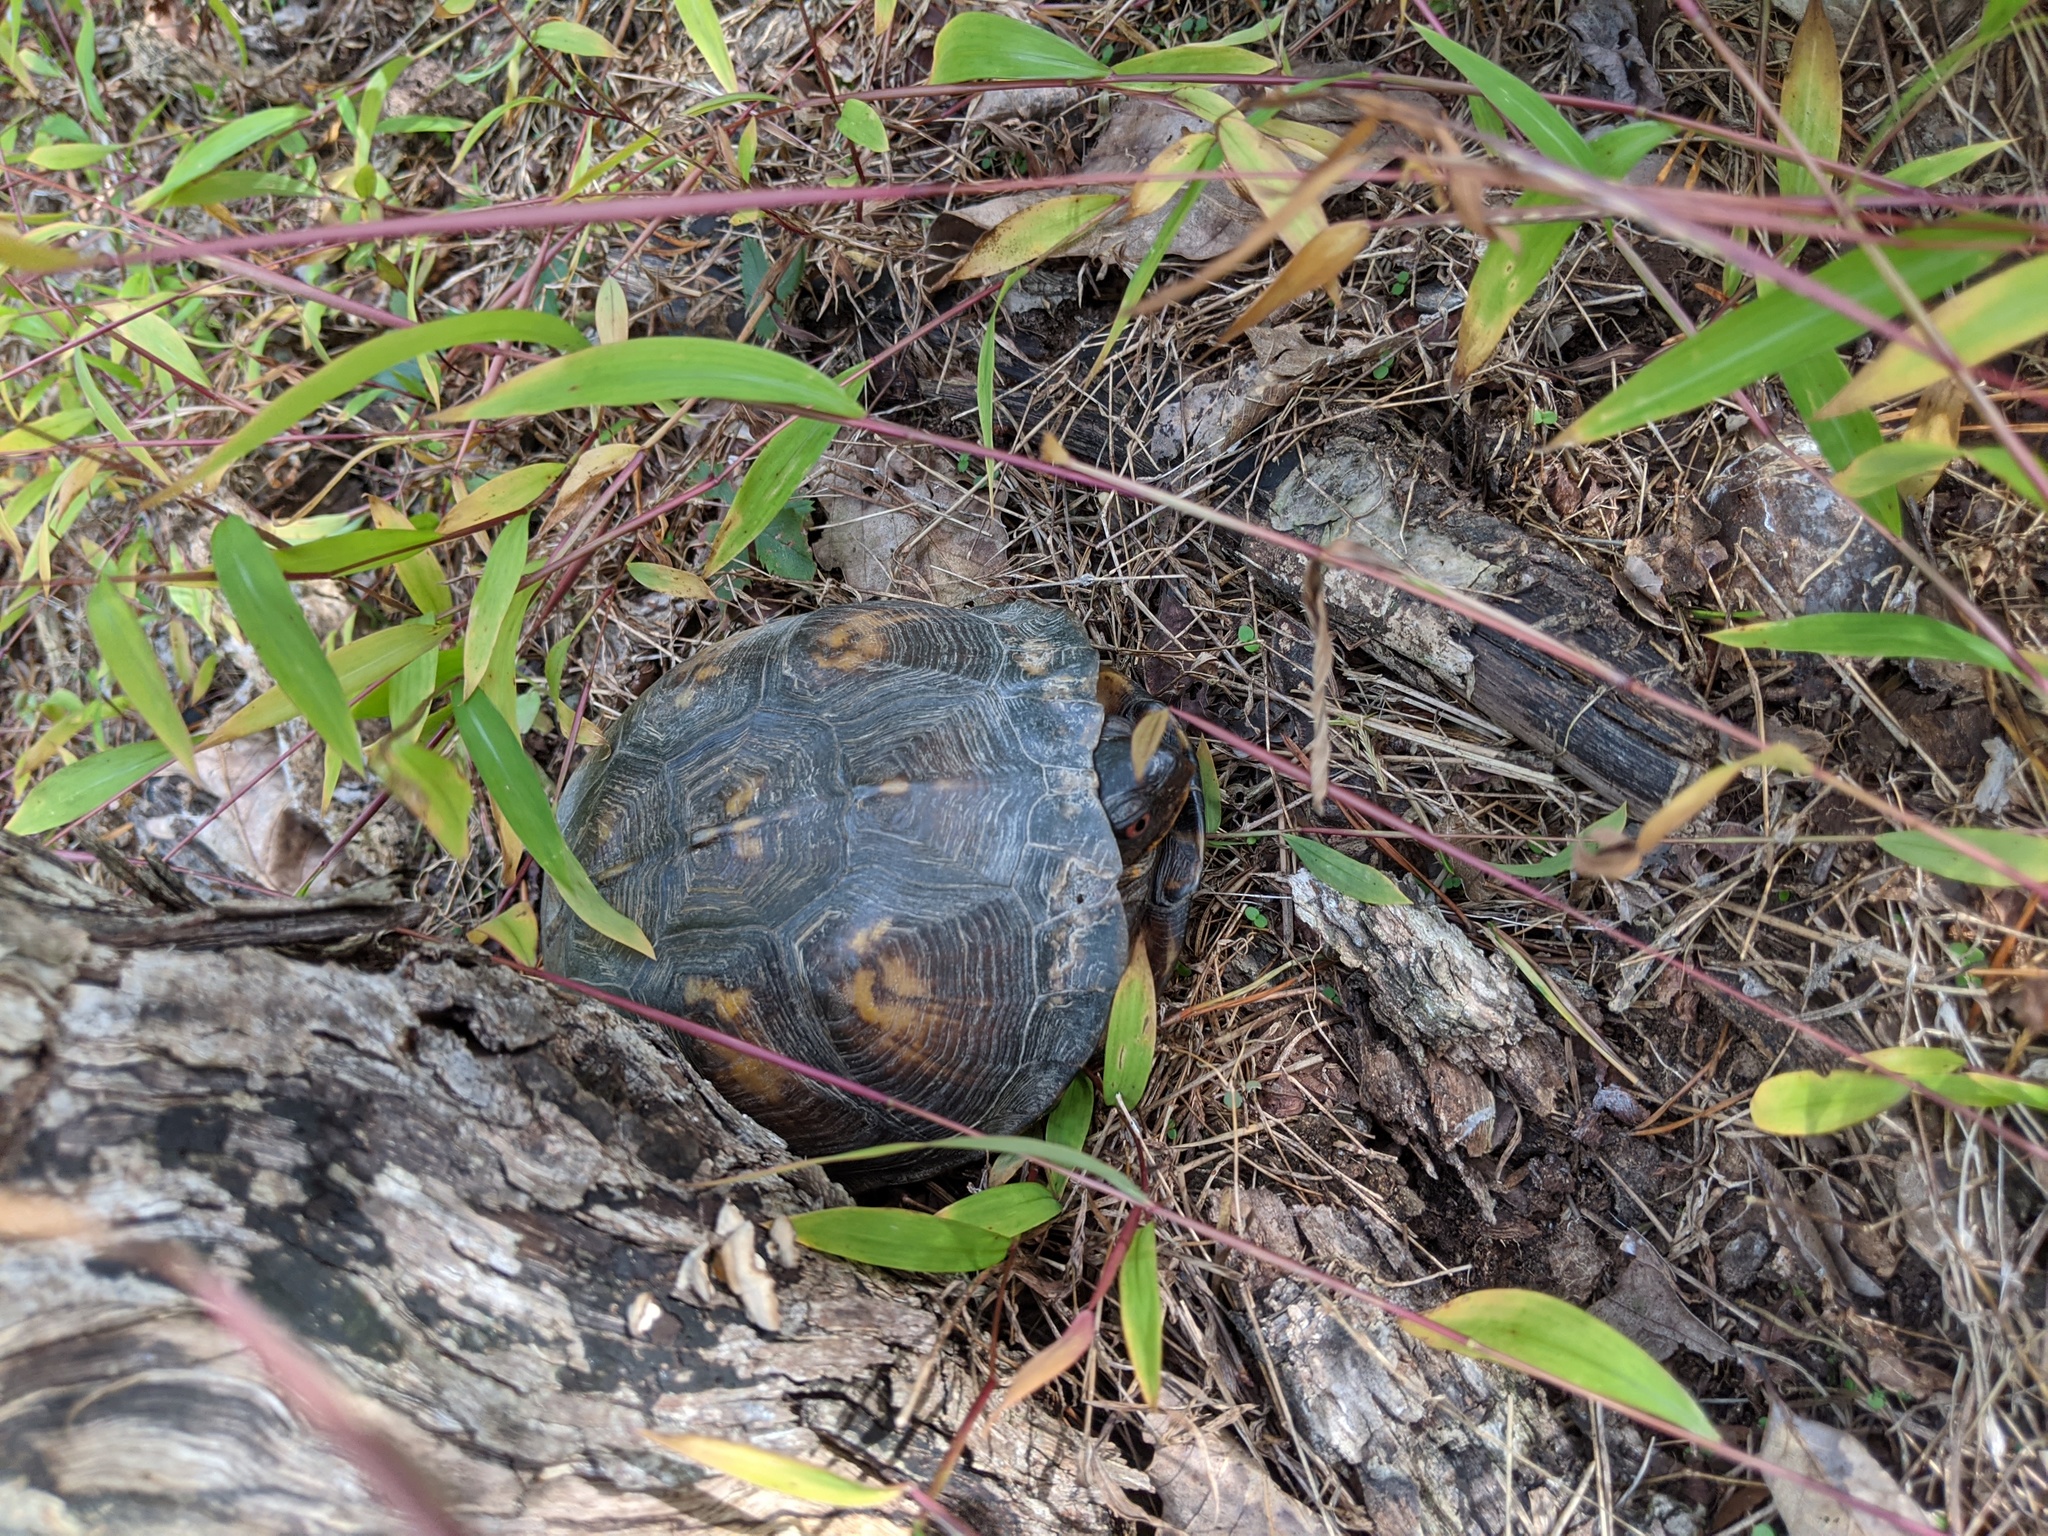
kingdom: Animalia
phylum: Chordata
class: Testudines
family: Emydidae
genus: Terrapene
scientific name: Terrapene carolina
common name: Common box turtle
